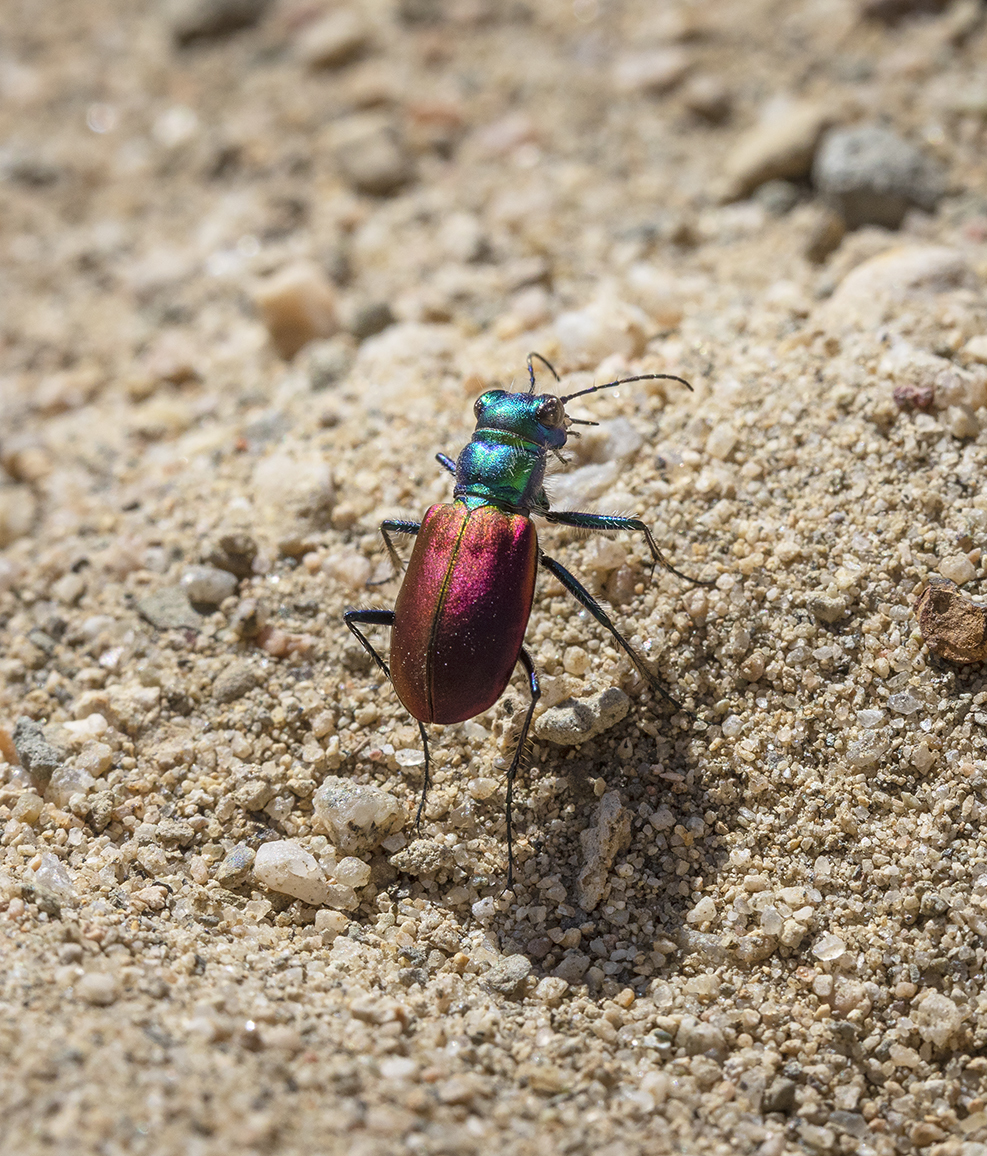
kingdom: Animalia
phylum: Arthropoda
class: Insecta
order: Coleoptera
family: Carabidae
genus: Cicindela
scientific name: Cicindela scutellaris
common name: Festive tiger beetle
